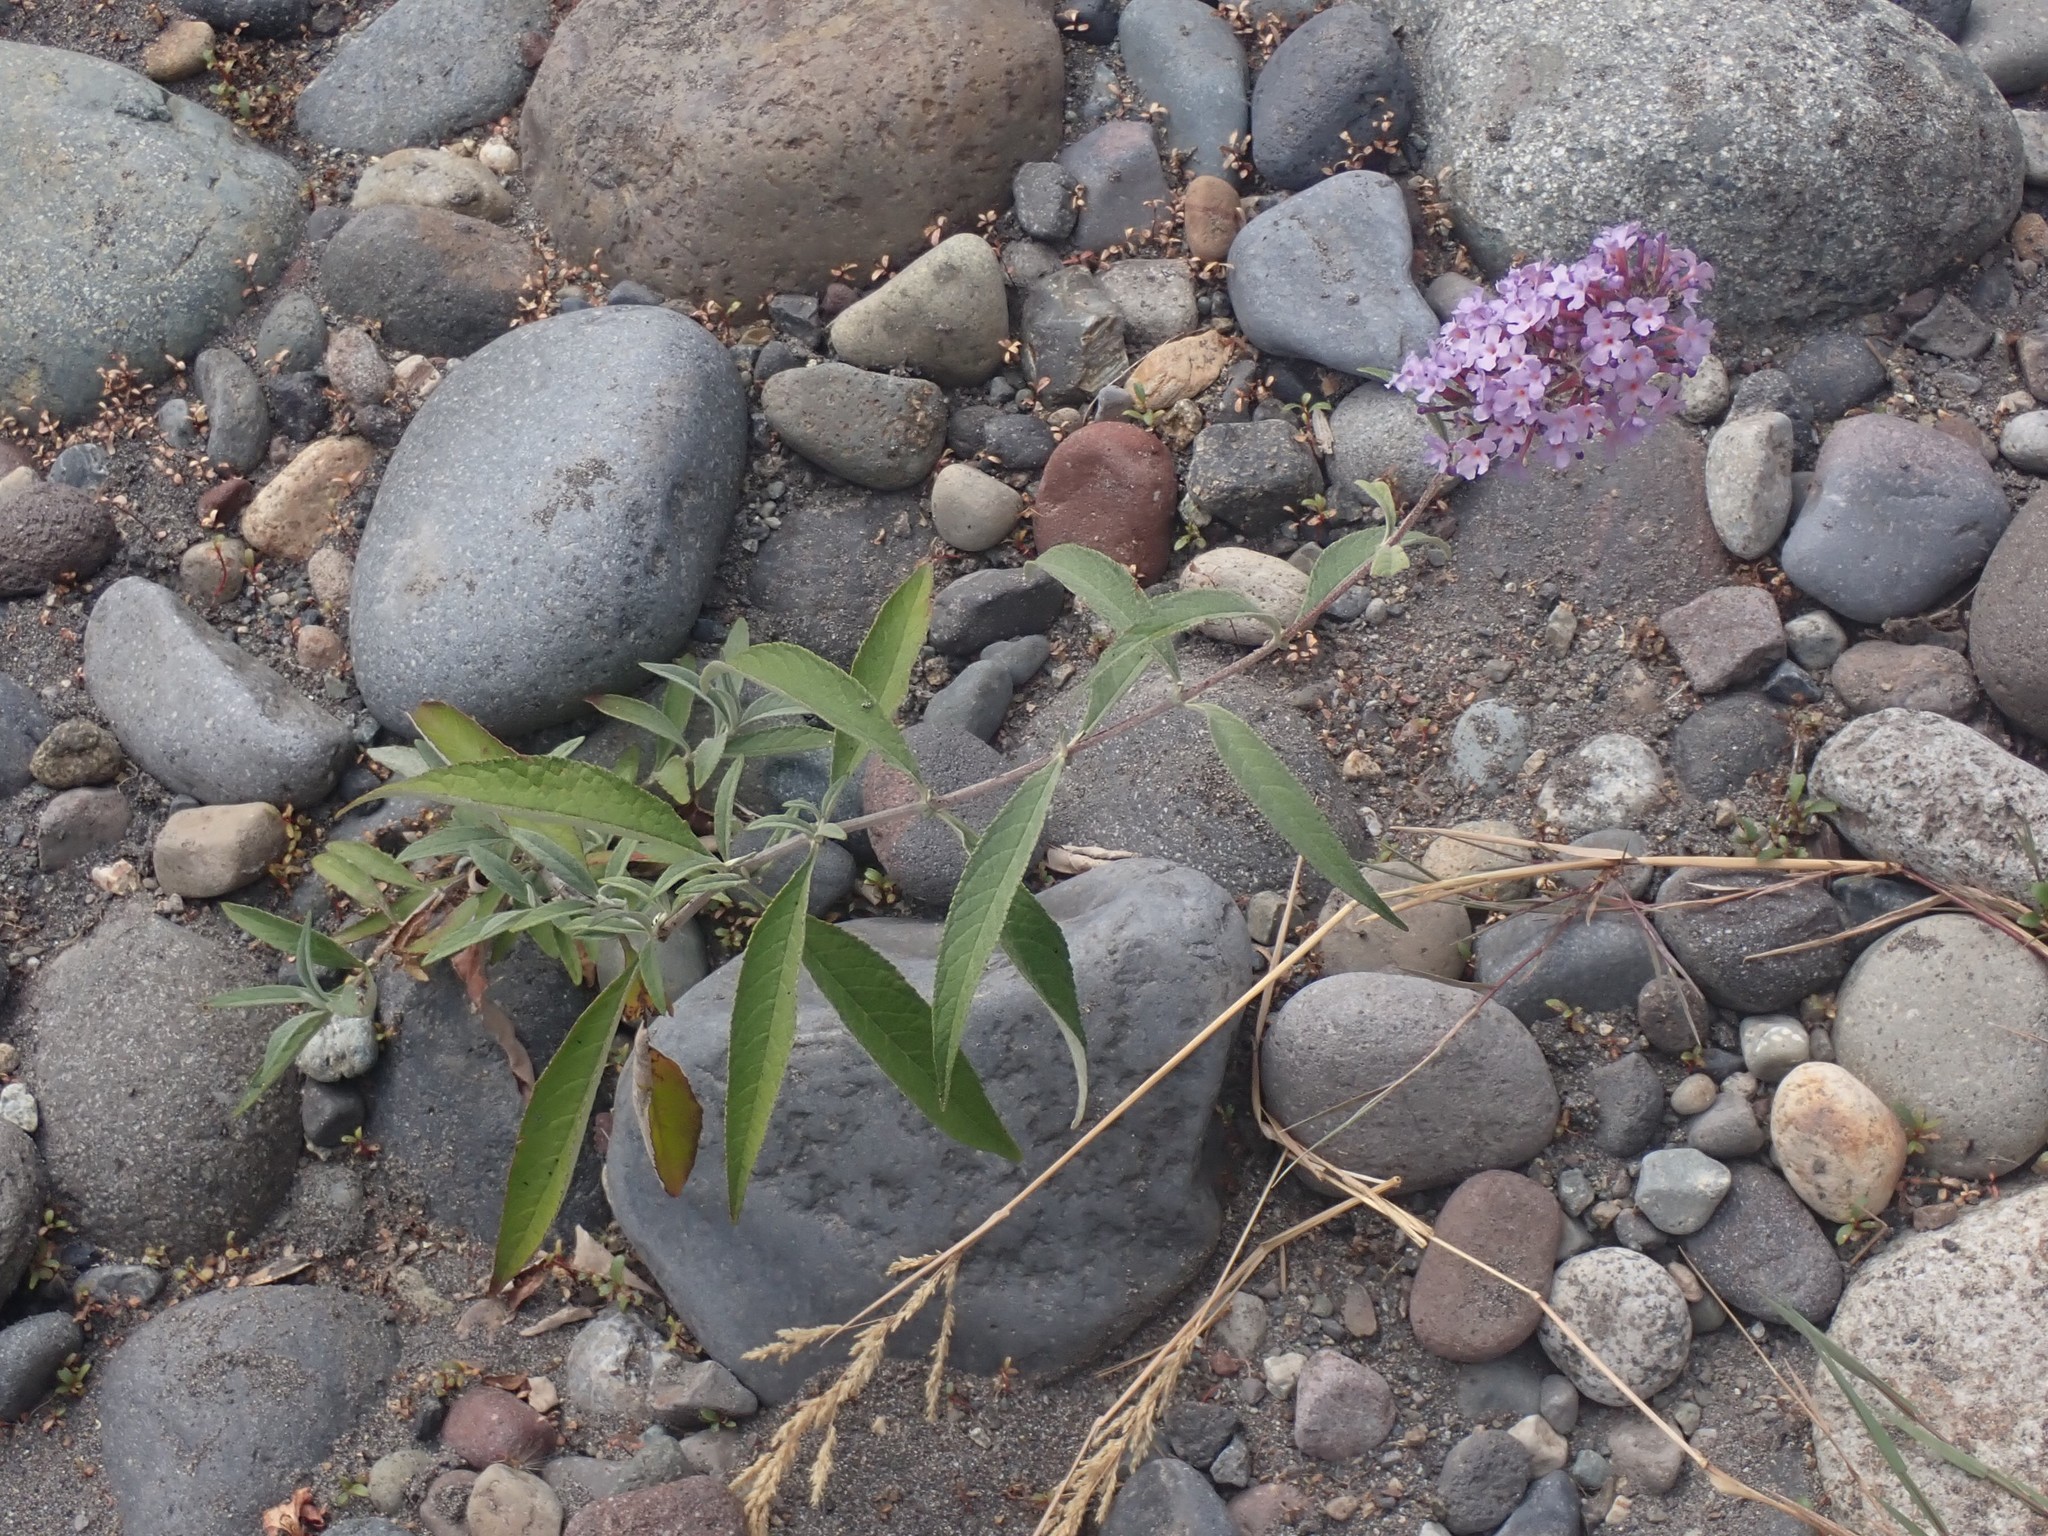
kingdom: Plantae
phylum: Tracheophyta
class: Magnoliopsida
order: Lamiales
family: Scrophulariaceae
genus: Buddleja
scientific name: Buddleja davidii
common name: Butterfly-bush
